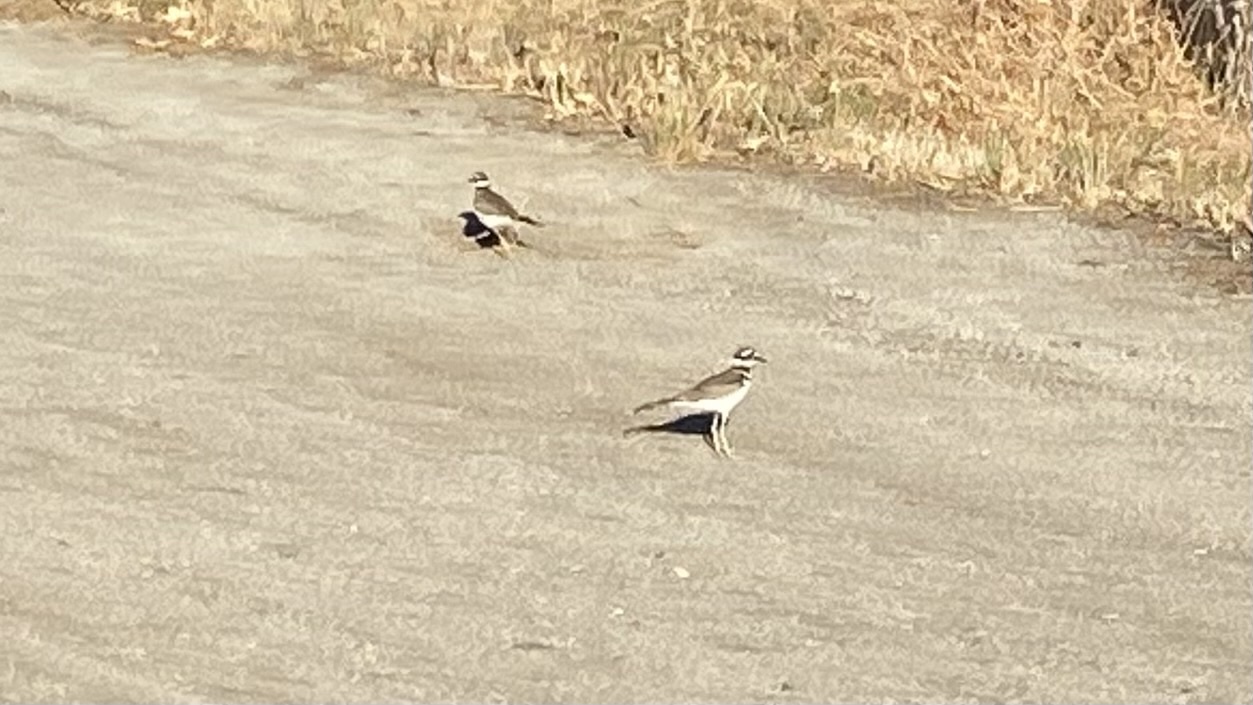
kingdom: Animalia
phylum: Chordata
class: Aves
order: Charadriiformes
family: Charadriidae
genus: Charadrius
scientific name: Charadrius vociferus
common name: Killdeer
